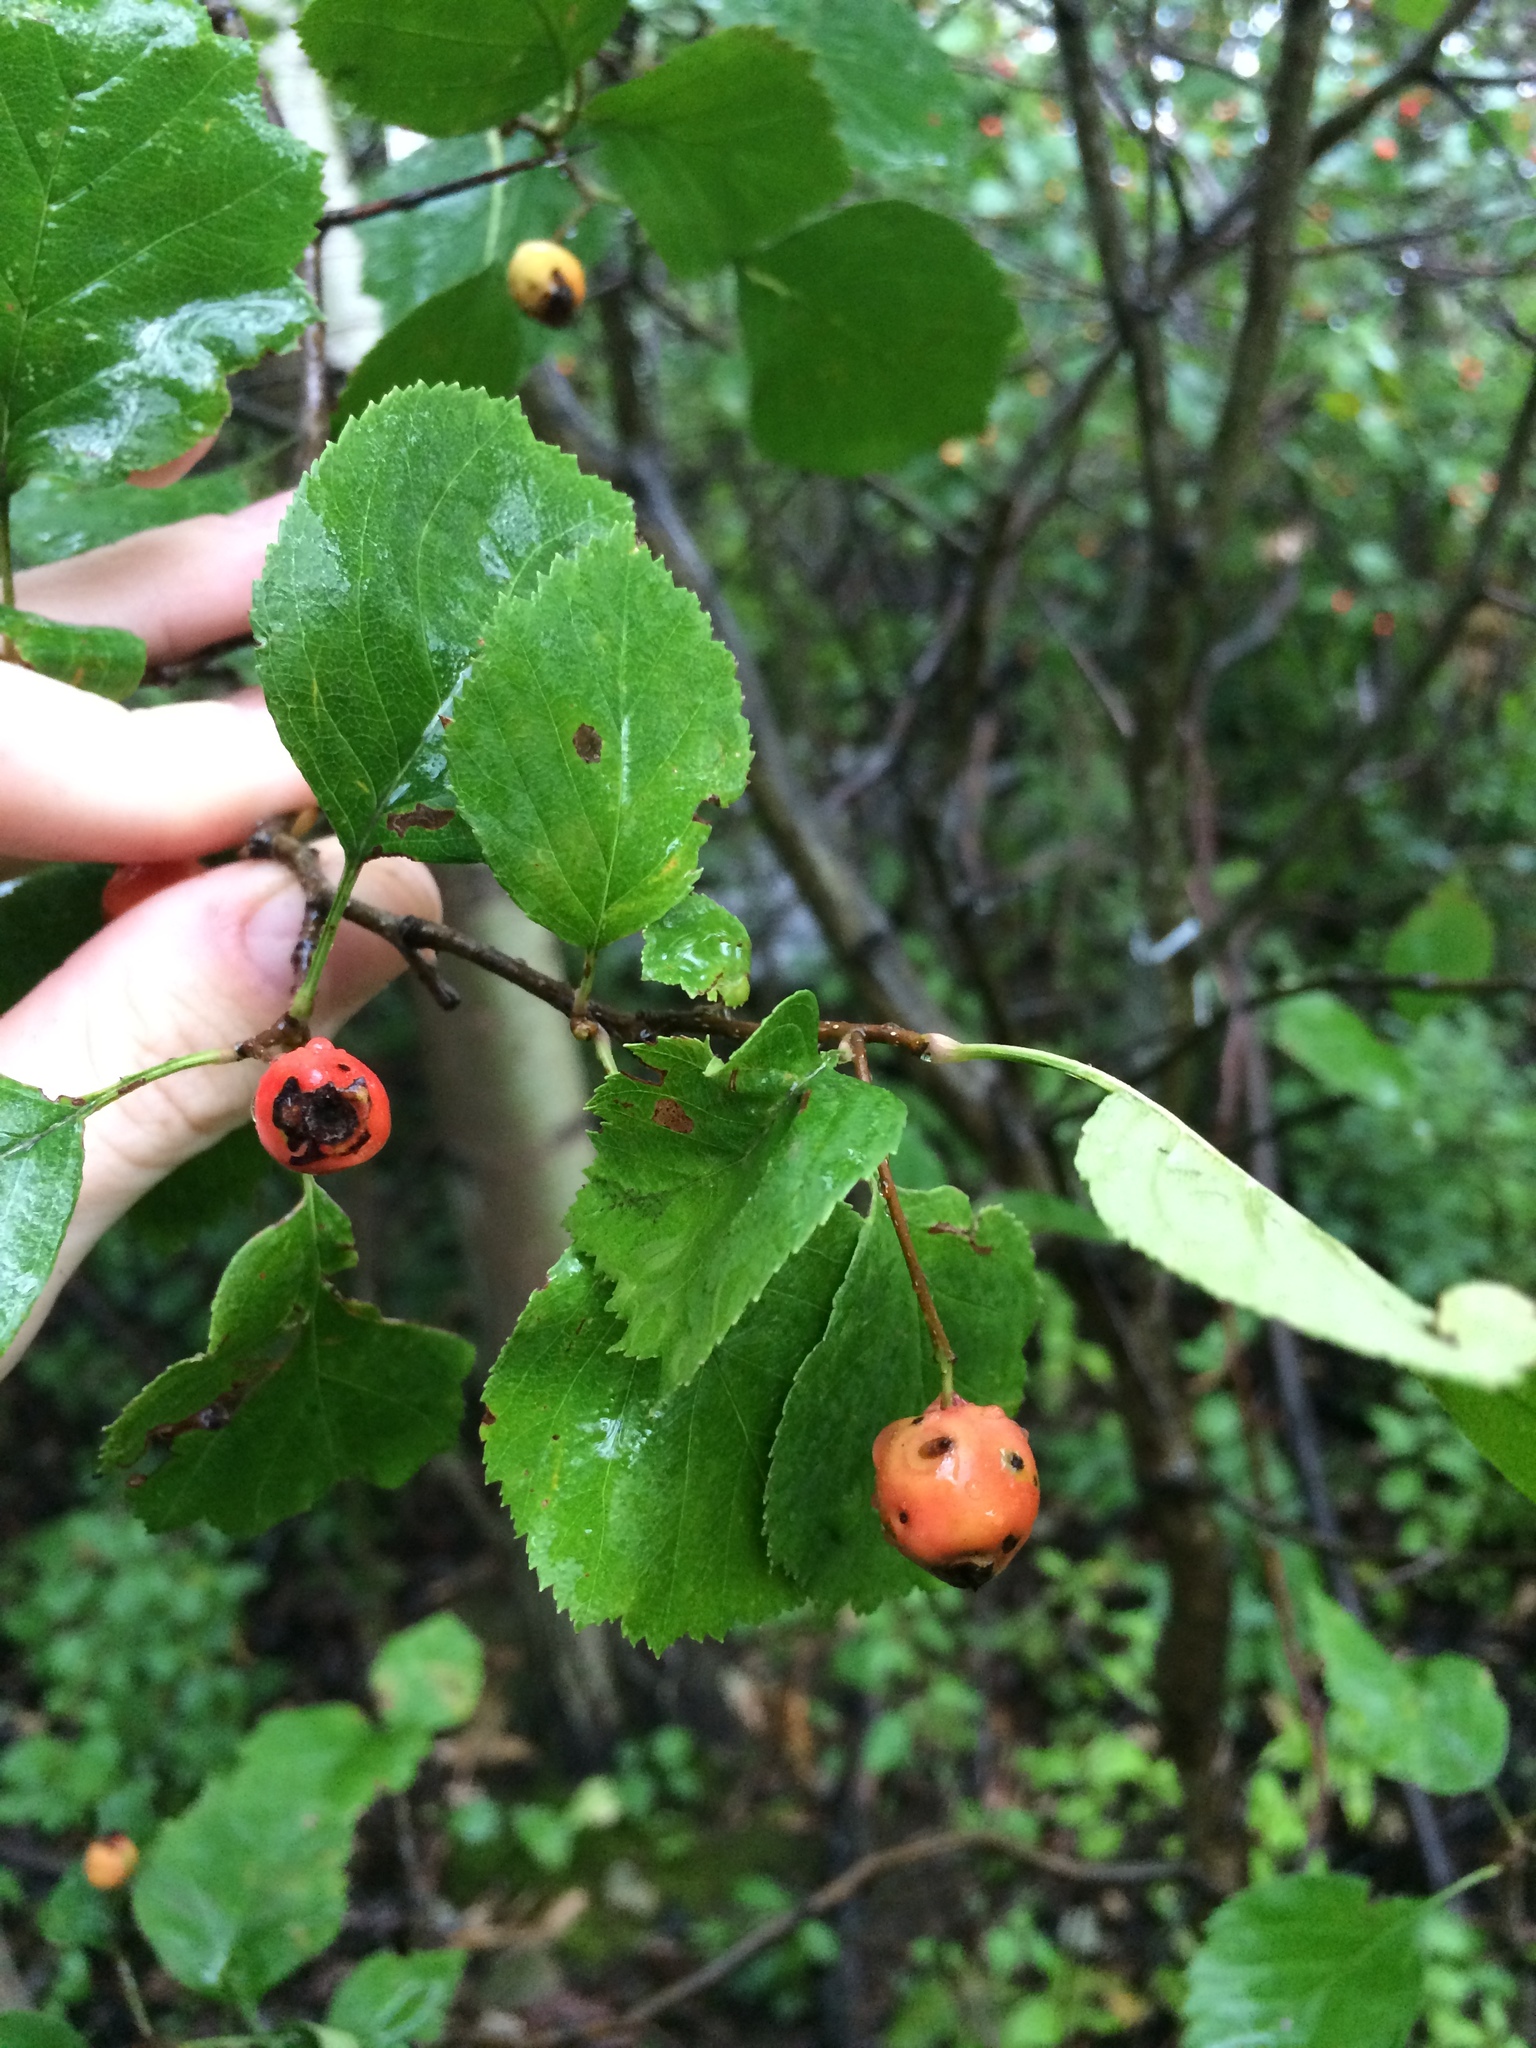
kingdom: Plantae
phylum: Tracheophyta
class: Magnoliopsida
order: Rosales
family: Rosaceae
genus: Crataegus
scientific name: Crataegus scabrida
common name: Rough hawthorn
